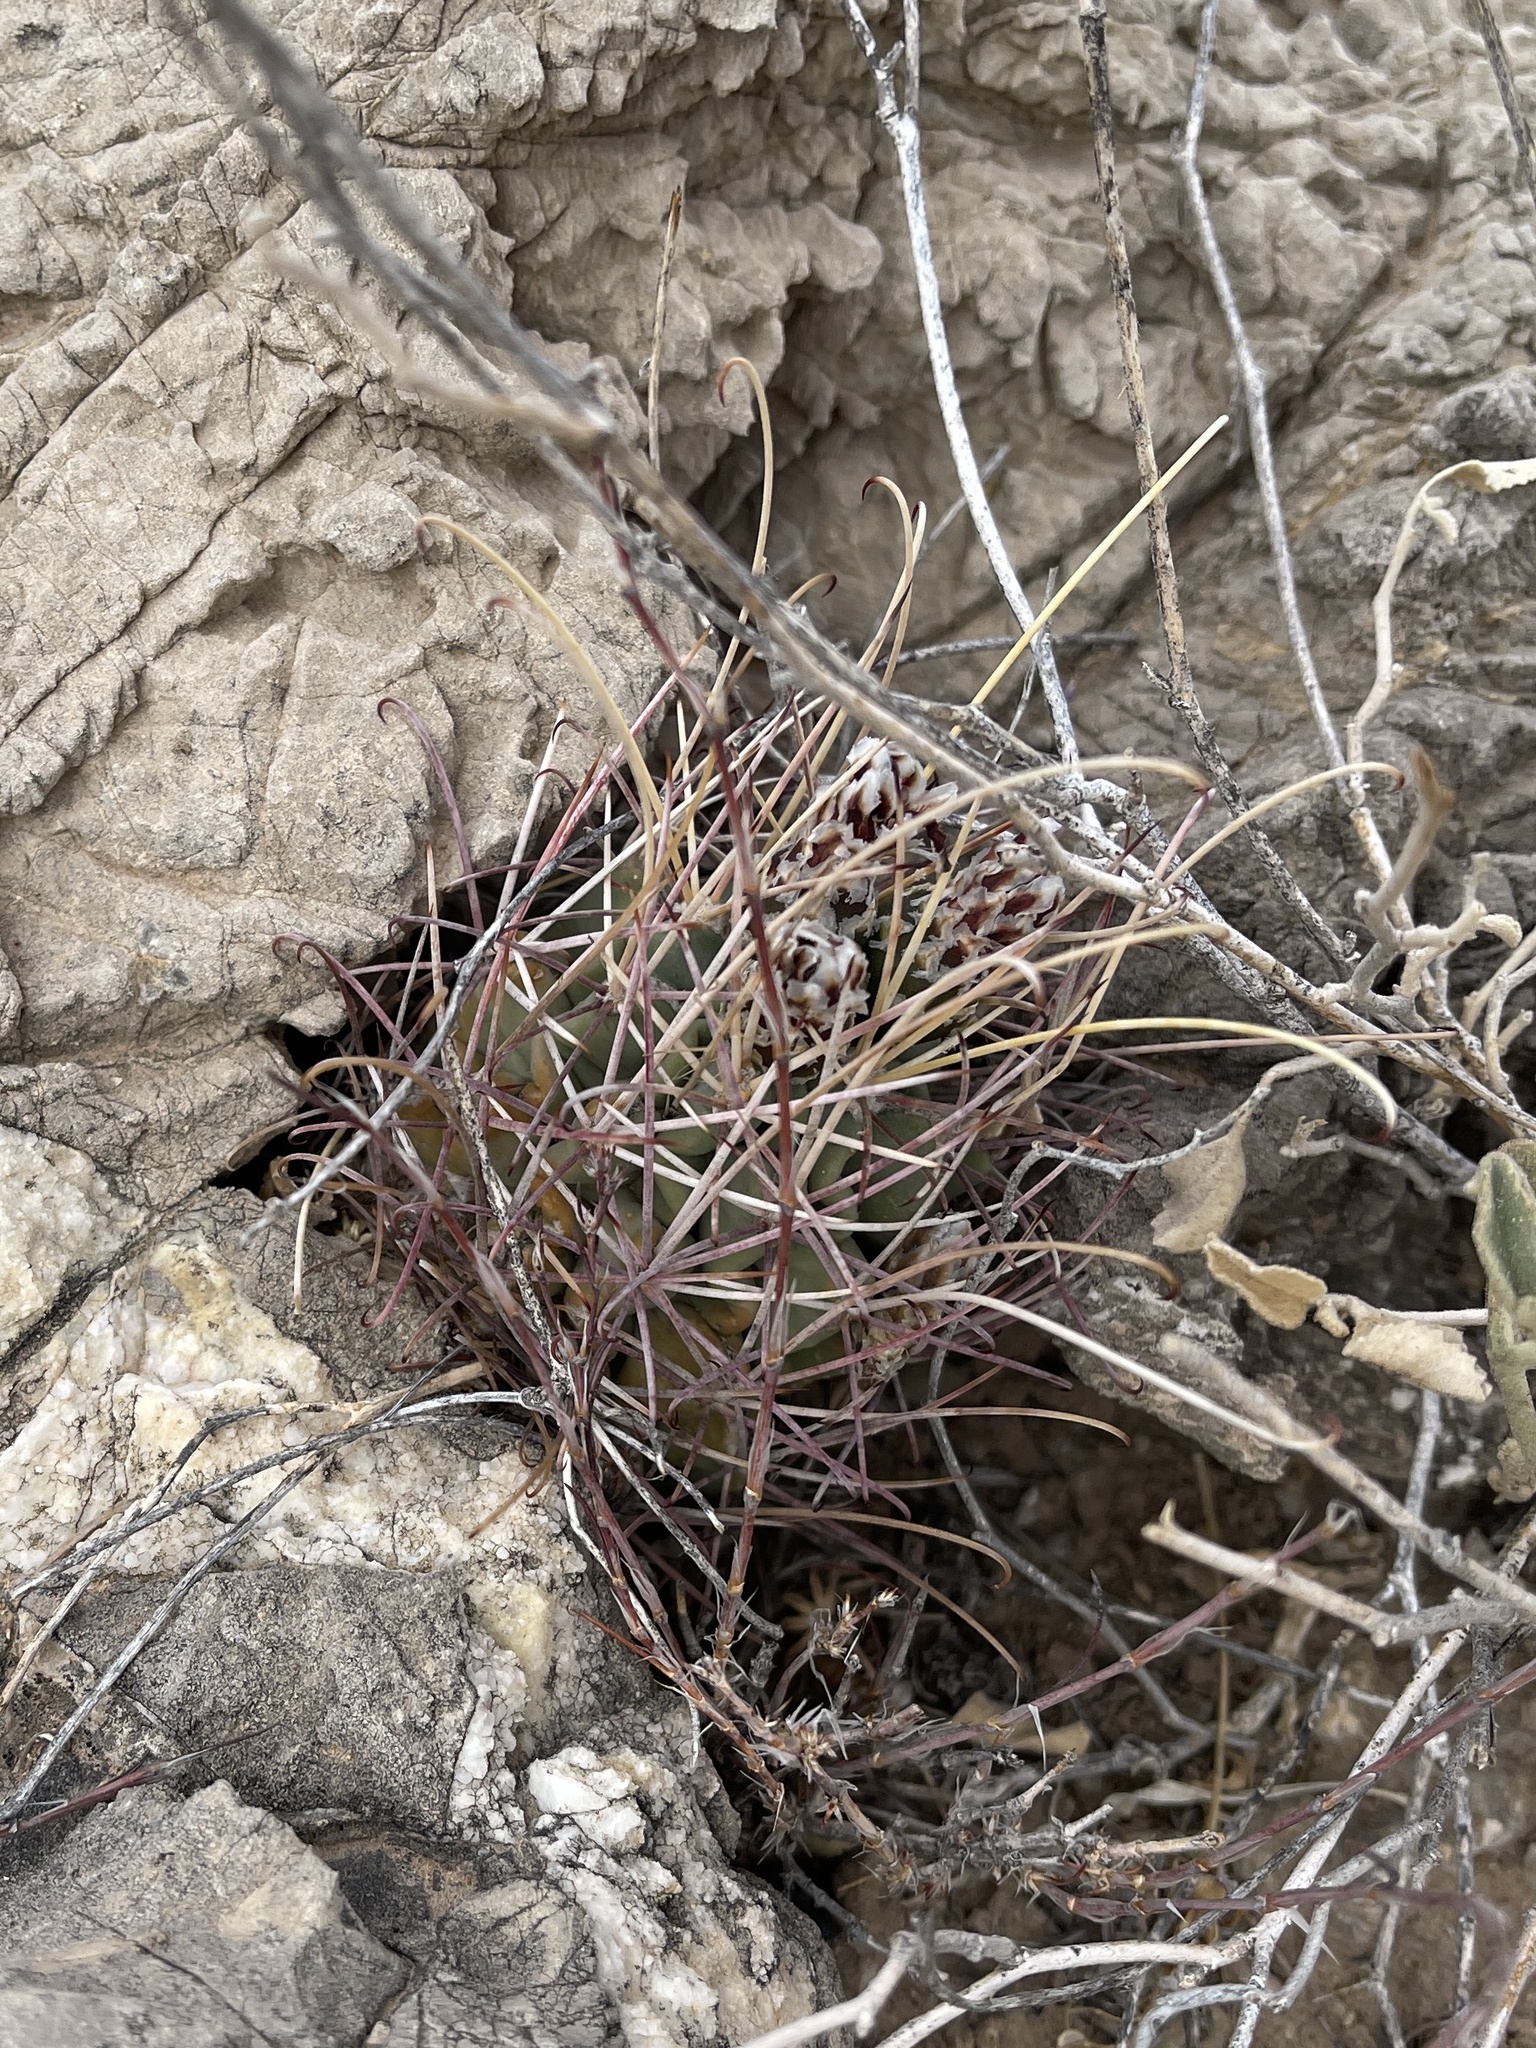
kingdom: Plantae
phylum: Tracheophyta
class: Magnoliopsida
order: Caryophyllales
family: Cactaceae
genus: Ferocactus
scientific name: Ferocactus uncinatus
